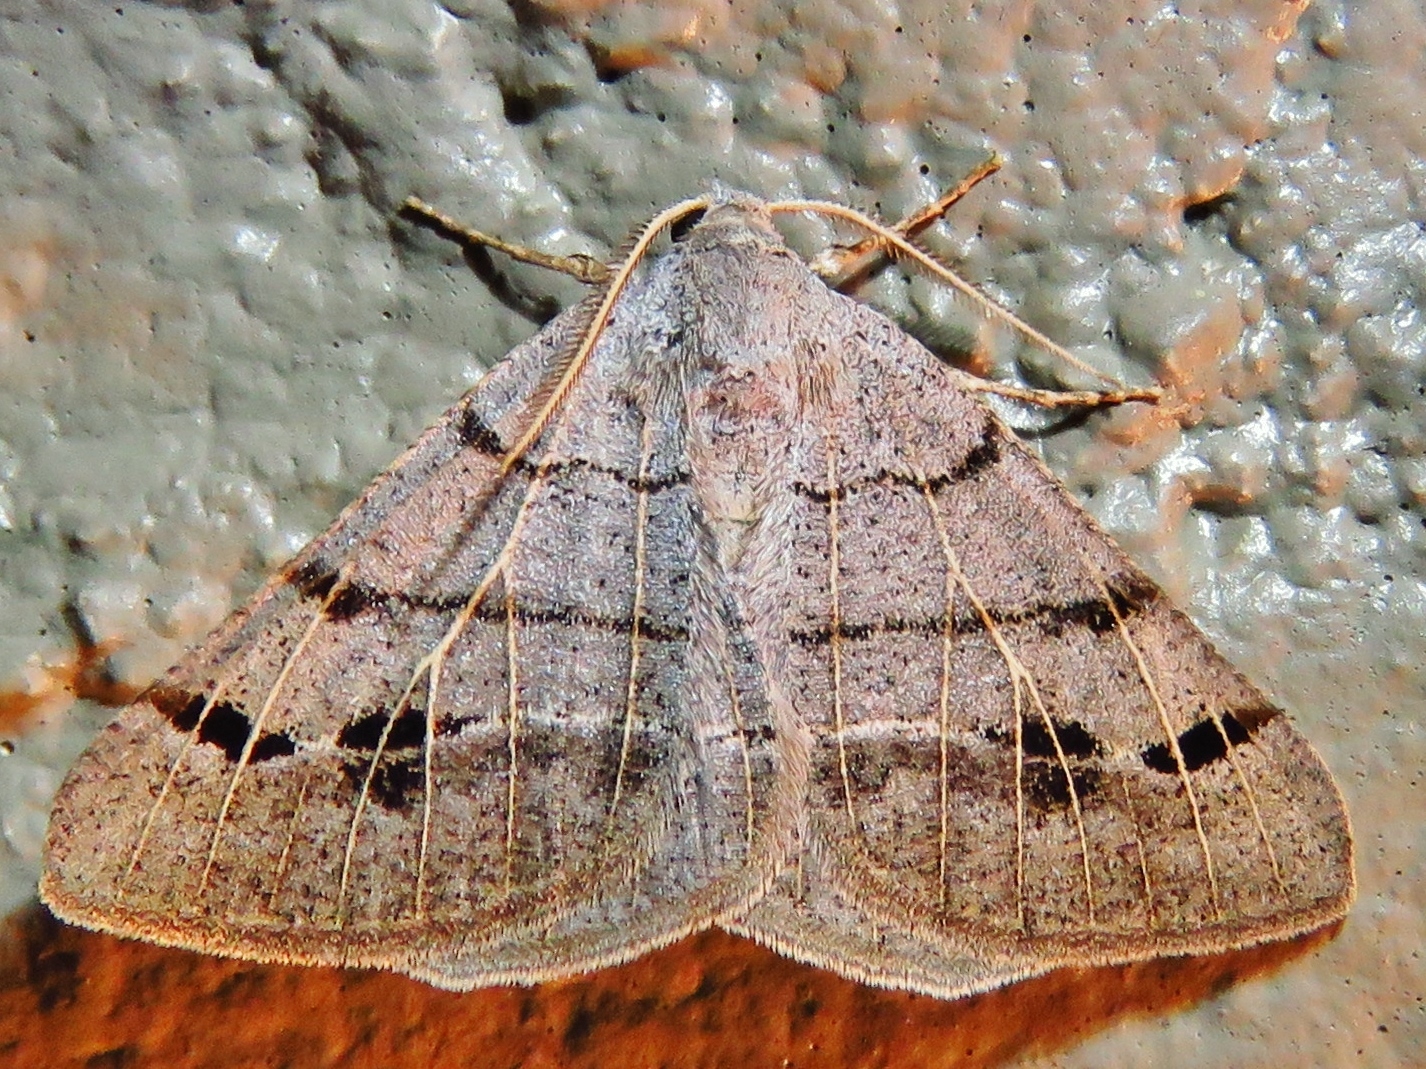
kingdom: Animalia
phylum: Arthropoda
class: Insecta
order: Lepidoptera
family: Geometridae
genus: Isturgia
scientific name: Isturgia dislocaria
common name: Pale-viened enconista
